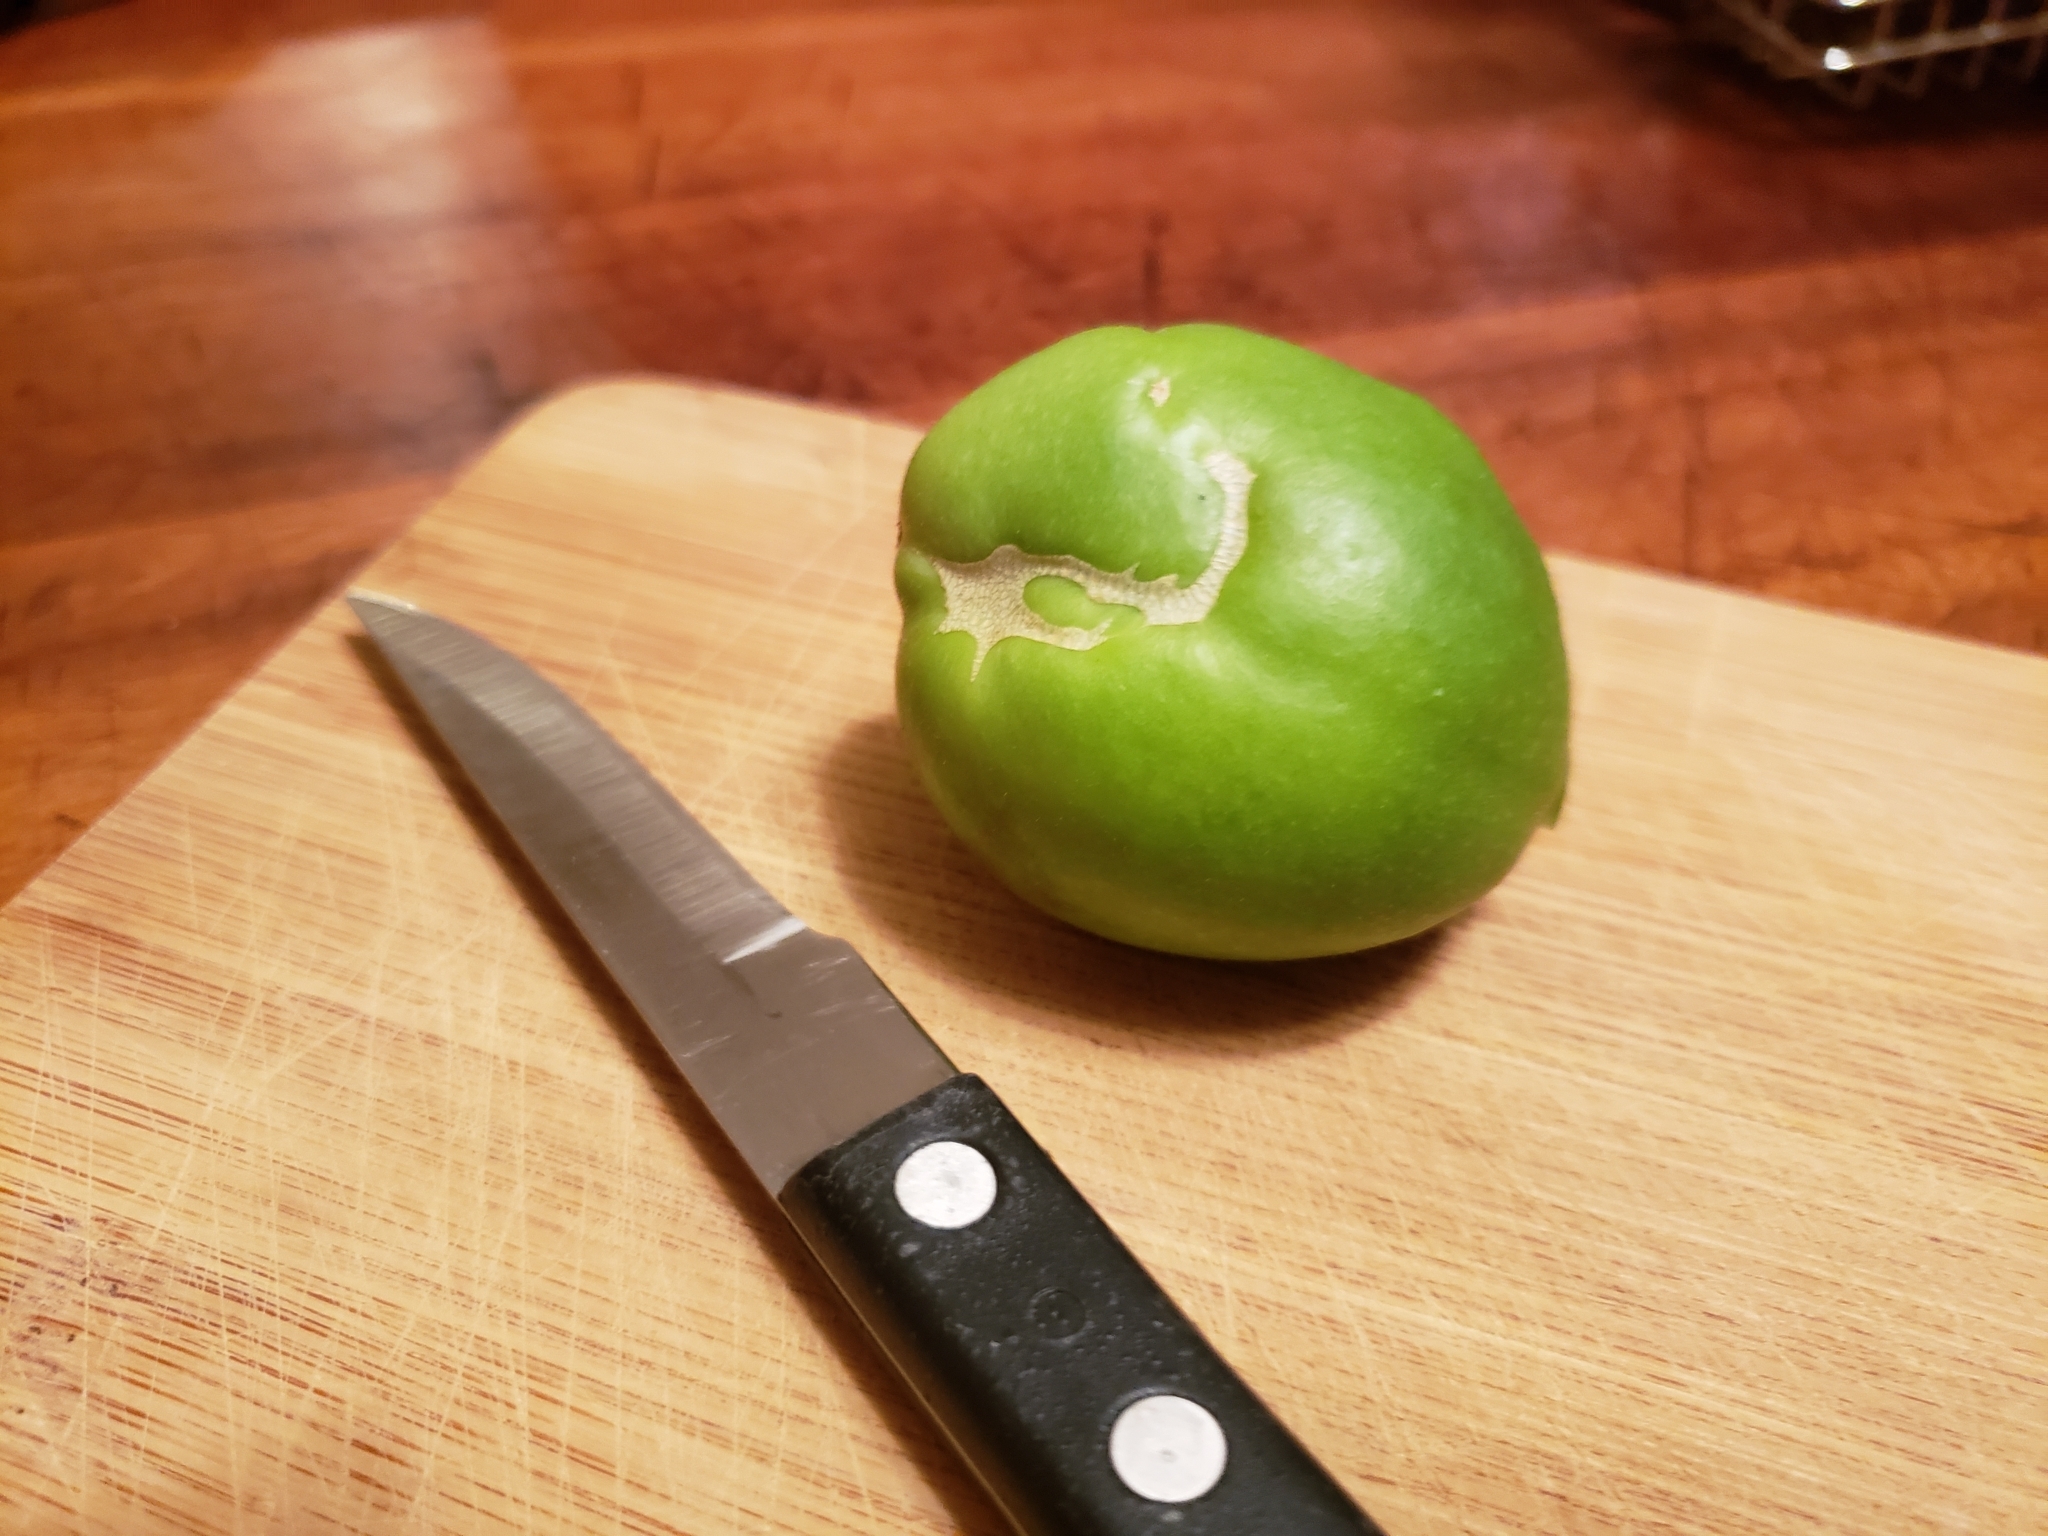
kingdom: Plantae
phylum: Tracheophyta
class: Magnoliopsida
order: Malpighiales
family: Passifloraceae
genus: Passiflora
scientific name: Passiflora incarnata
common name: Apricot-vine
